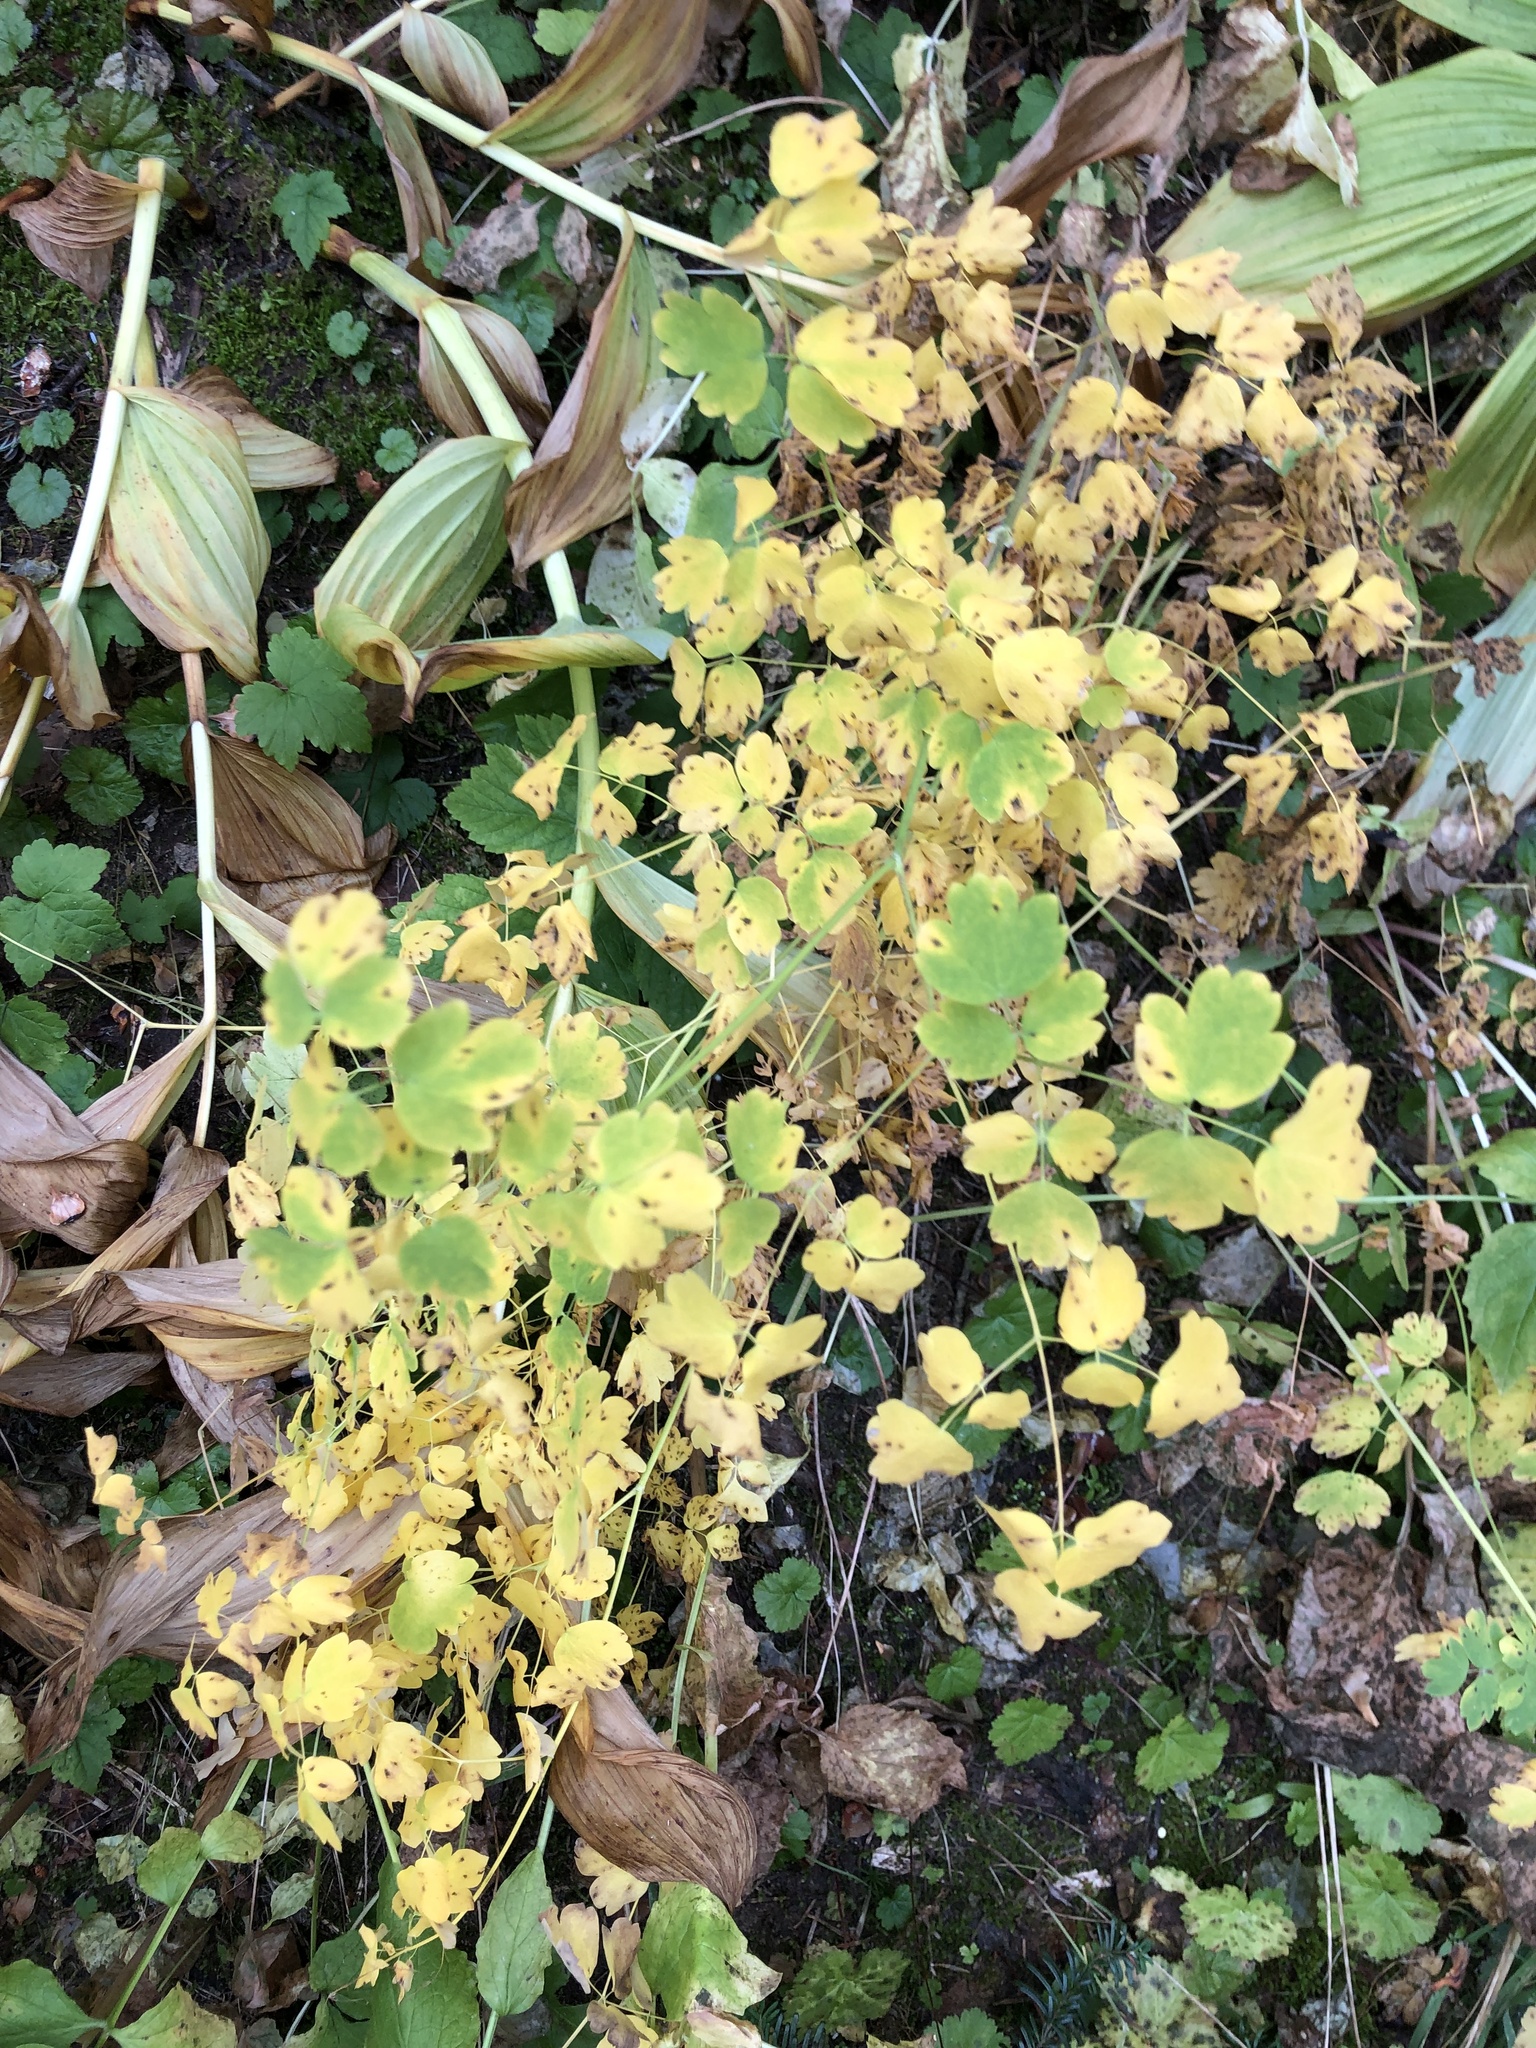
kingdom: Plantae
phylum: Tracheophyta
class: Magnoliopsida
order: Ranunculales
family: Ranunculaceae
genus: Thalictrum
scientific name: Thalictrum occidentale
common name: Western meadow-rue
